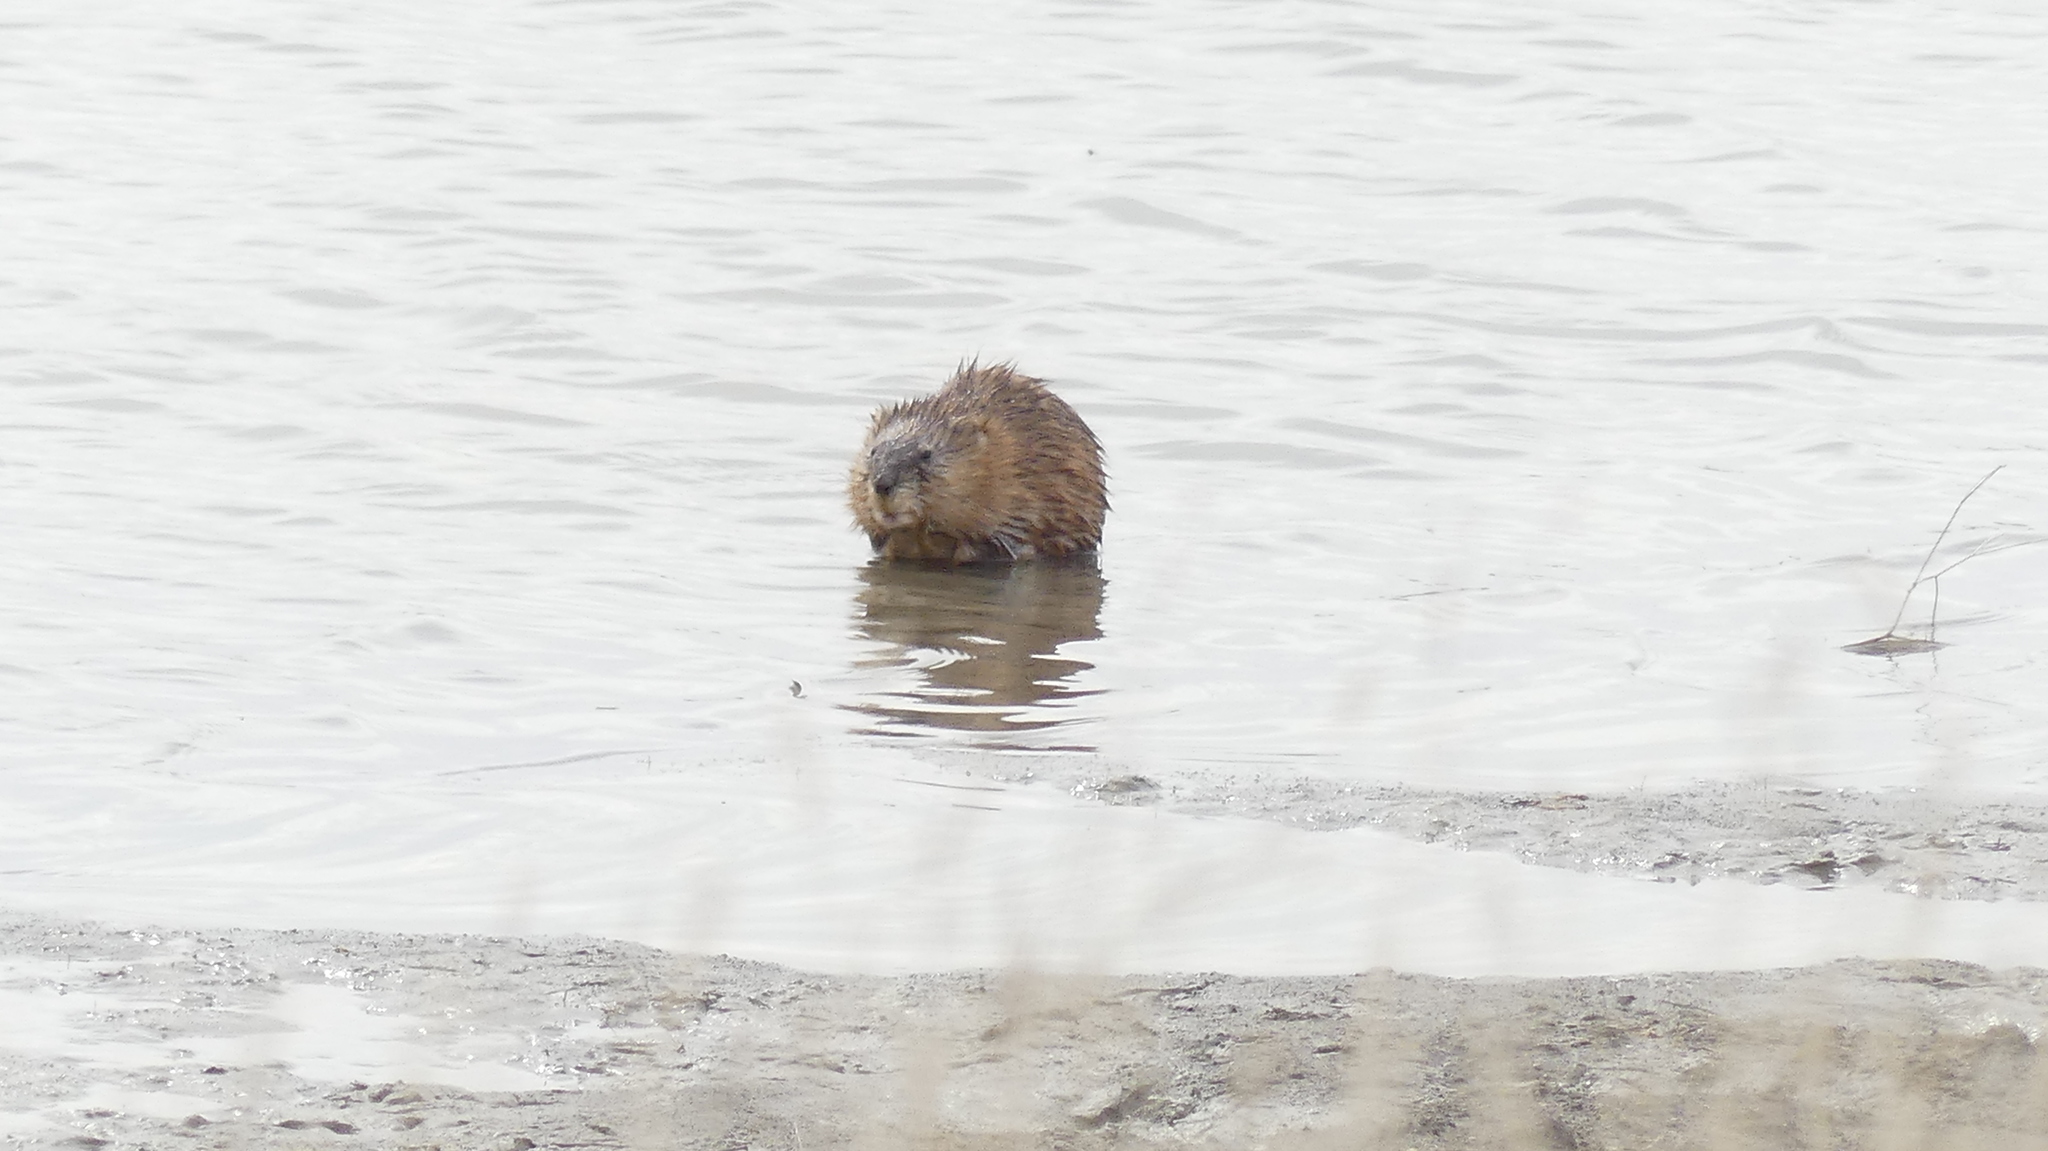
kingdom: Animalia
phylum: Chordata
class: Mammalia
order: Rodentia
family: Cricetidae
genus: Ondatra
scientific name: Ondatra zibethicus
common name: Muskrat
